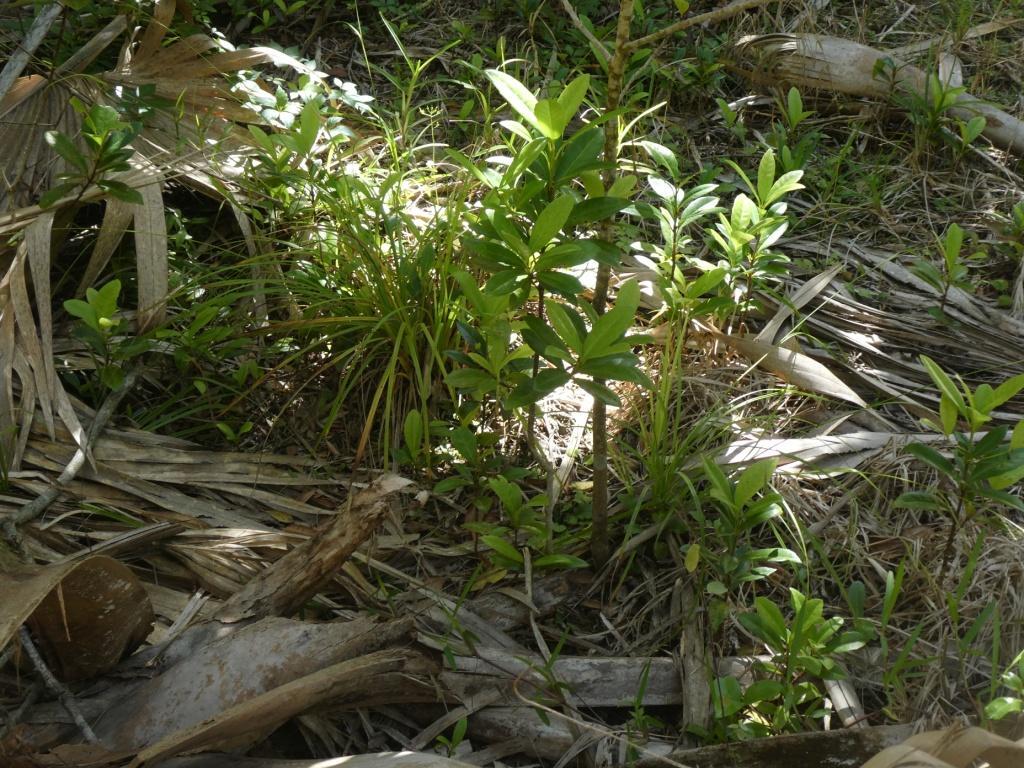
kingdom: Plantae
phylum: Tracheophyta
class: Liliopsida
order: Poales
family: Cyperaceae
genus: Carex
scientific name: Carex bermudiana
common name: Bermuda sedge
